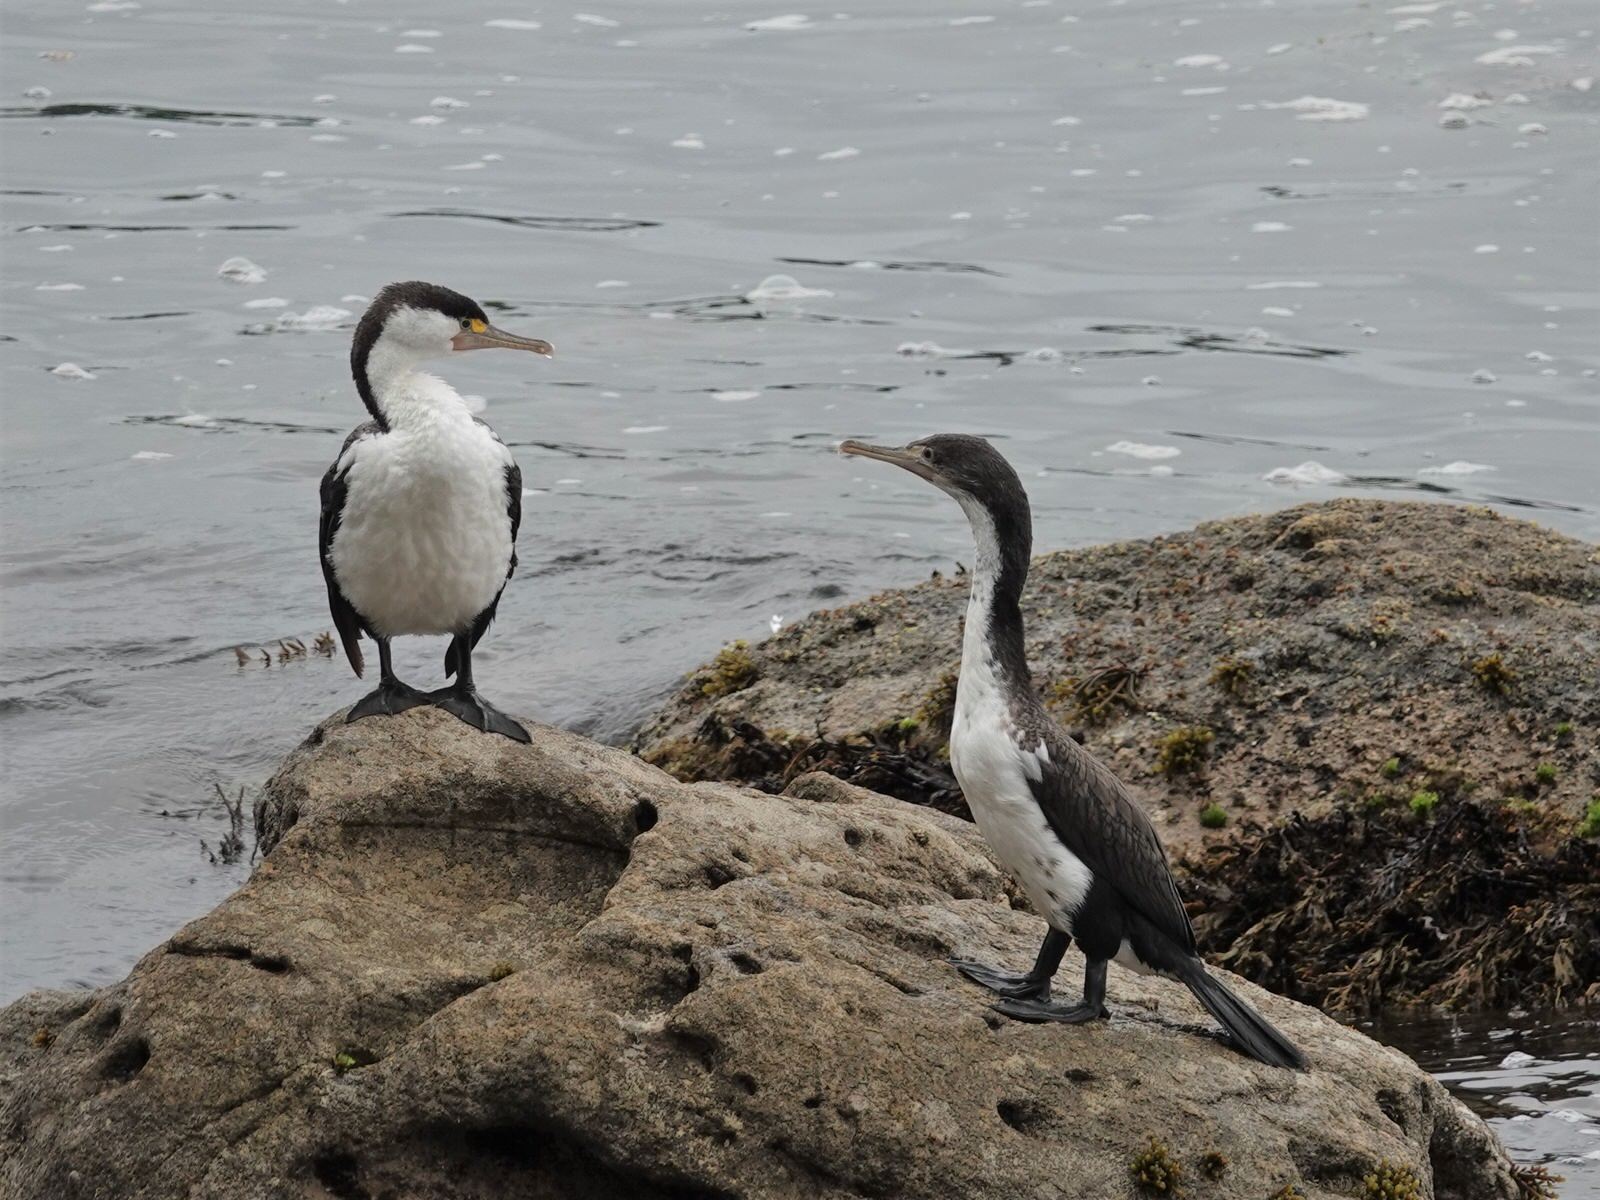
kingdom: Animalia
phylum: Chordata
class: Aves
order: Suliformes
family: Phalacrocoracidae
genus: Phalacrocorax
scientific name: Phalacrocorax varius
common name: Pied cormorant
